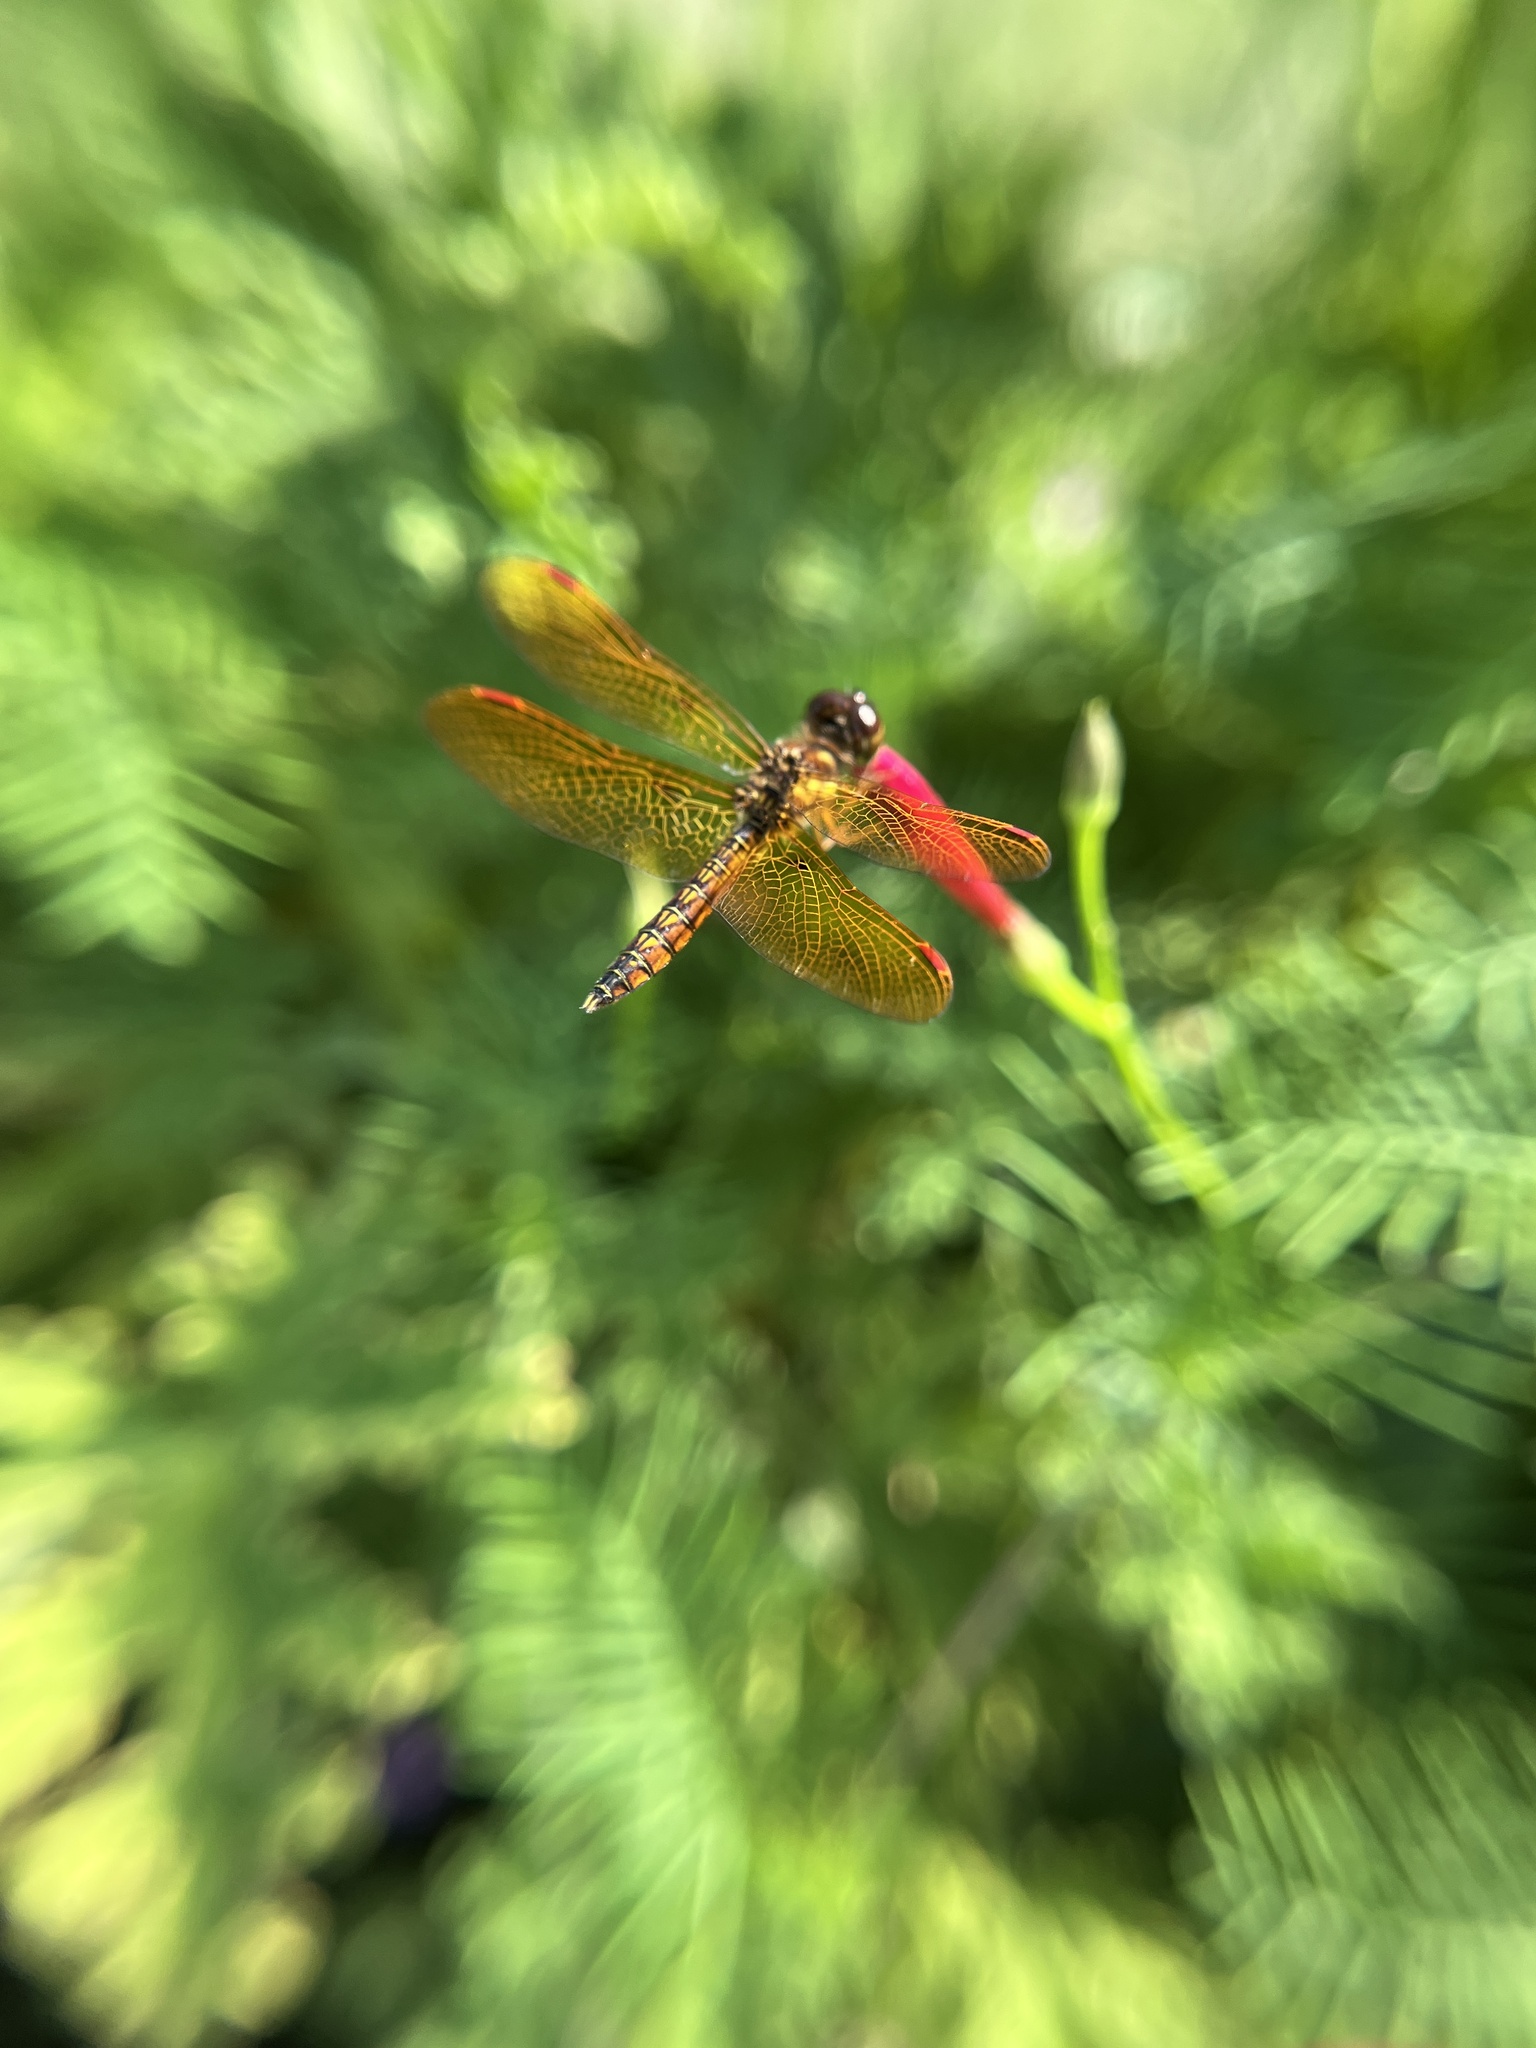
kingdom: Animalia
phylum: Arthropoda
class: Insecta
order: Odonata
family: Libellulidae
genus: Perithemis
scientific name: Perithemis tenera
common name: Eastern amberwing
